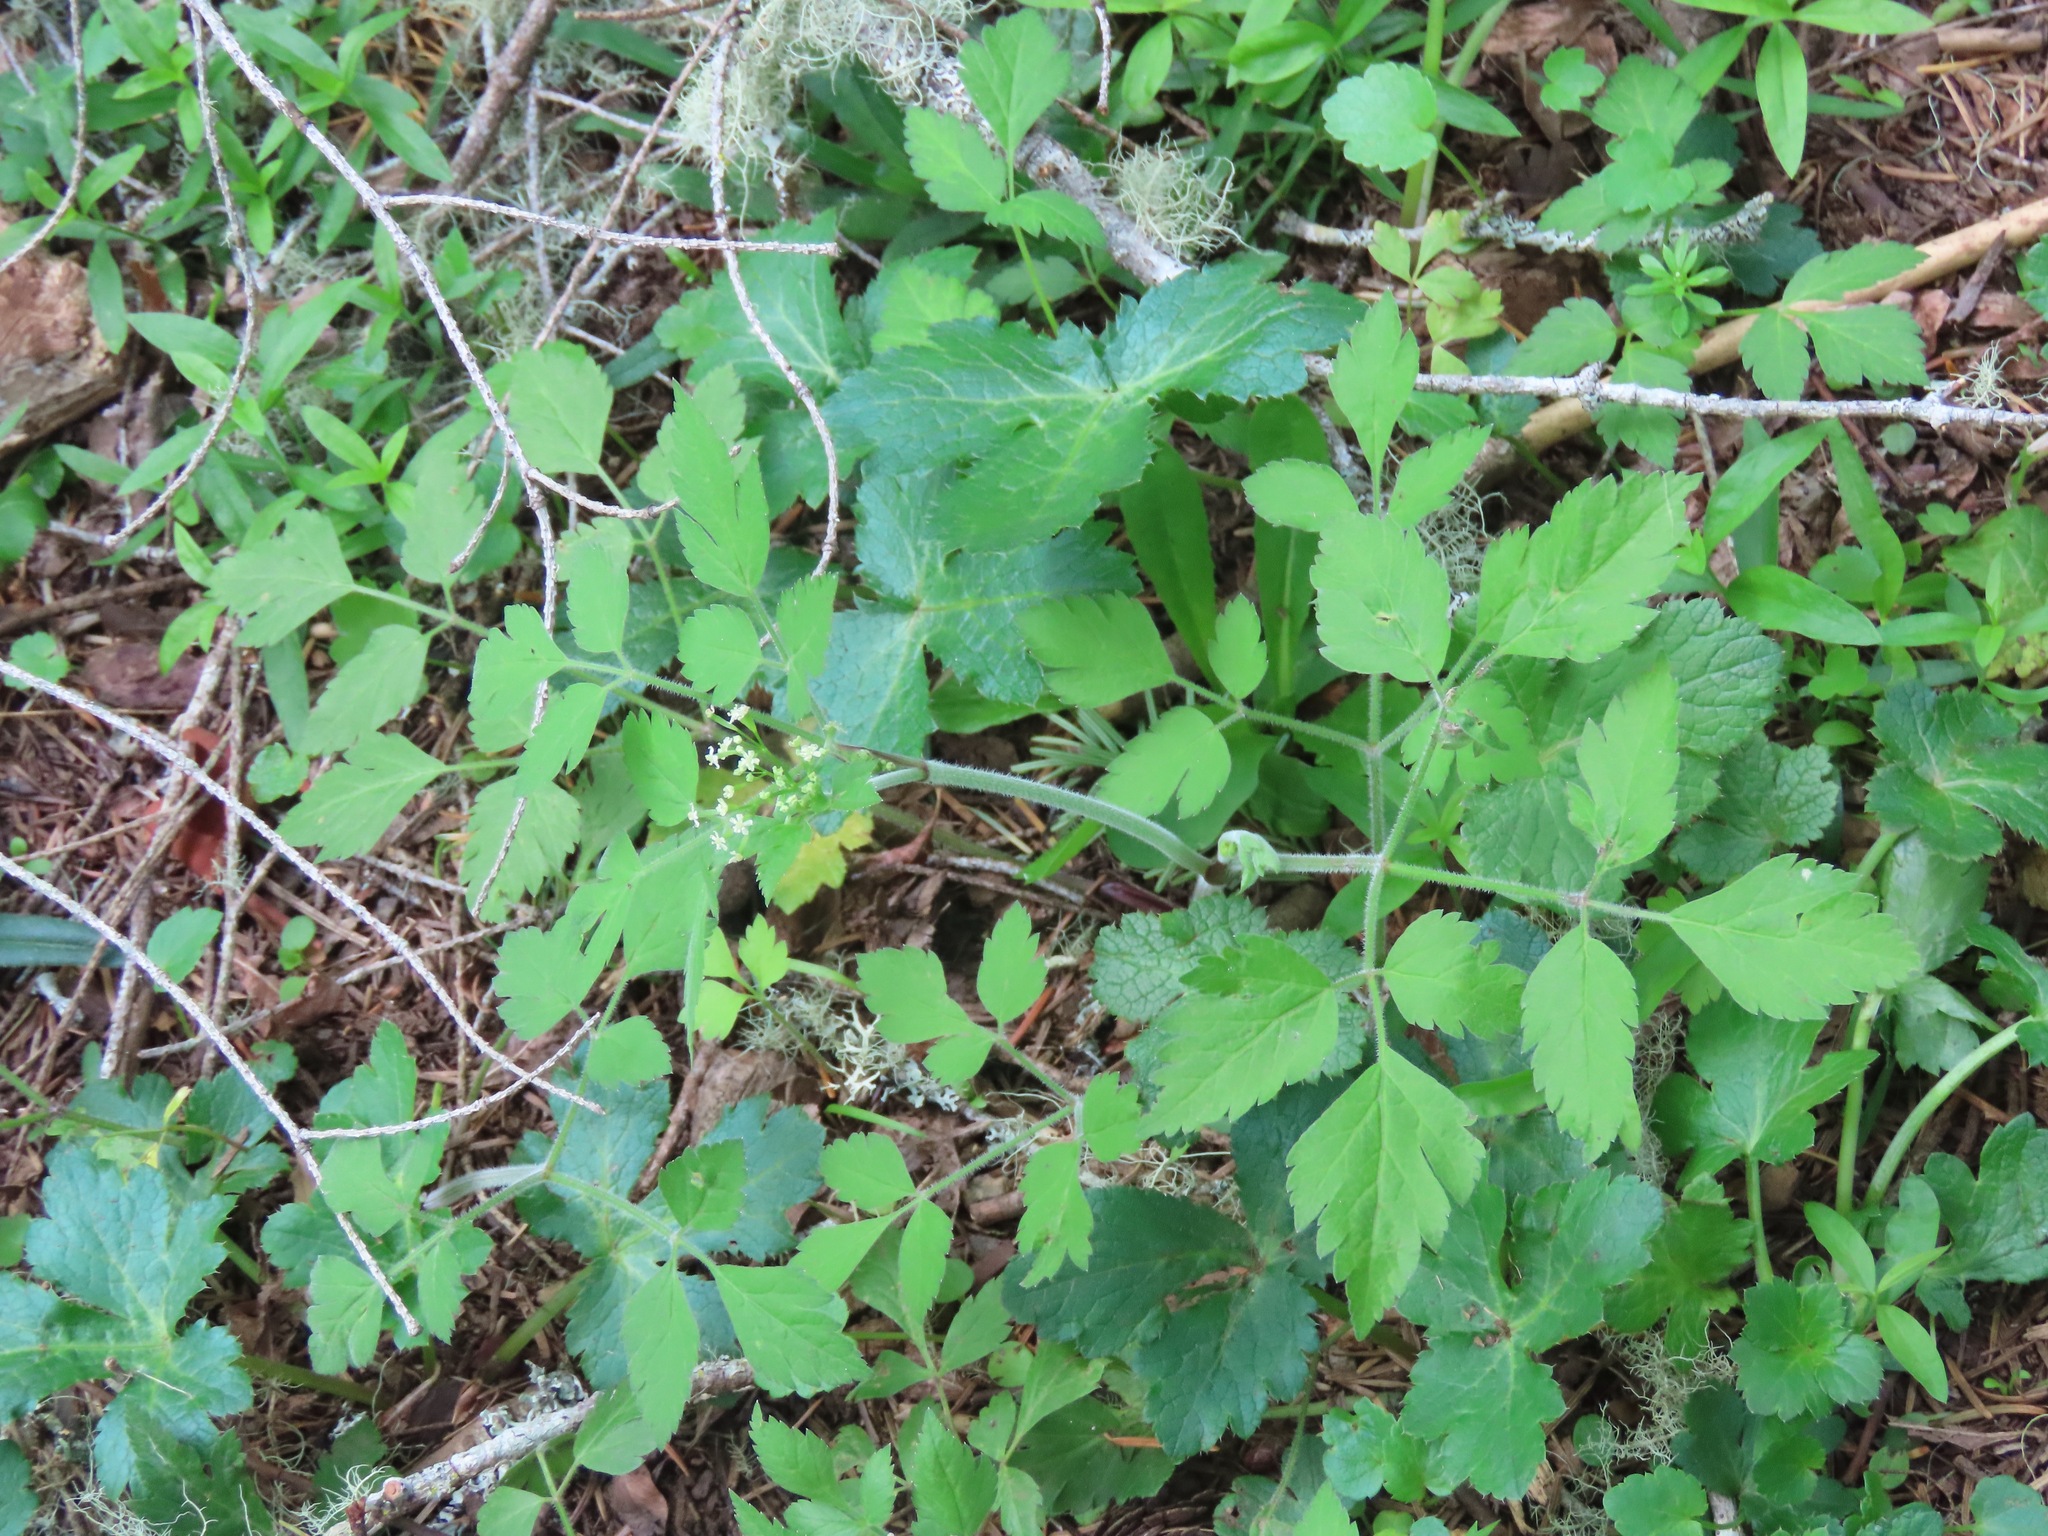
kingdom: Plantae
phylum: Tracheophyta
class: Magnoliopsida
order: Apiales
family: Apiaceae
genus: Osmorhiza
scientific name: Osmorhiza berteroi
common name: Mountain sweet cicely
